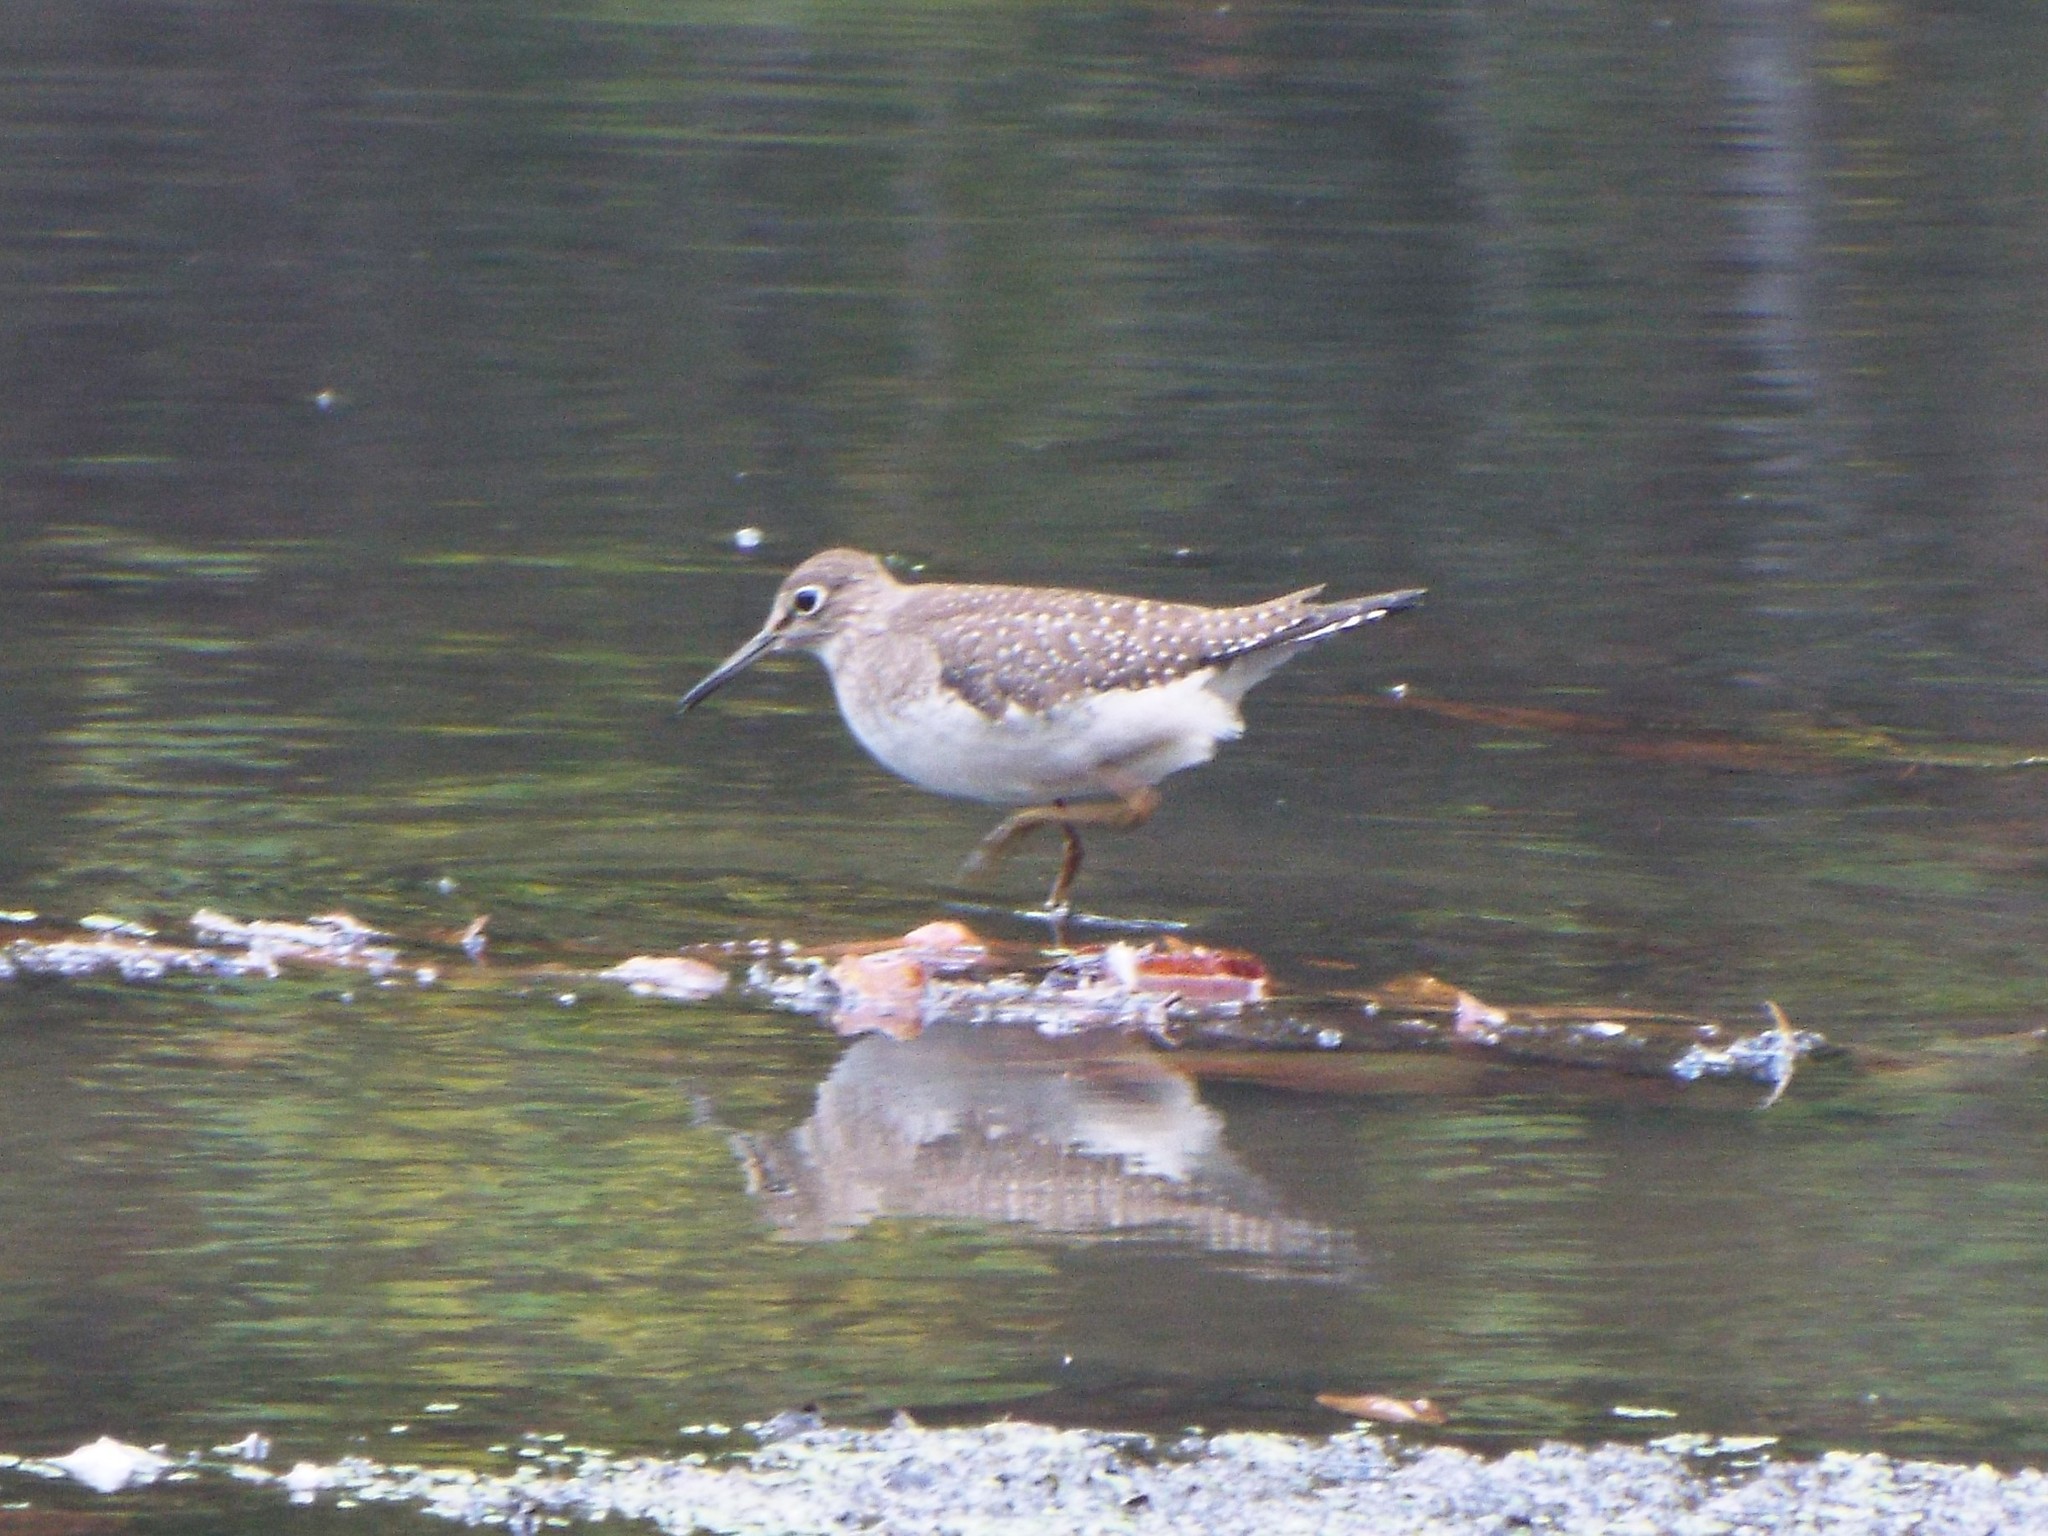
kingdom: Animalia
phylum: Chordata
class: Aves
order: Charadriiformes
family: Scolopacidae
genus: Tringa
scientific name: Tringa solitaria
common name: Solitary sandpiper
